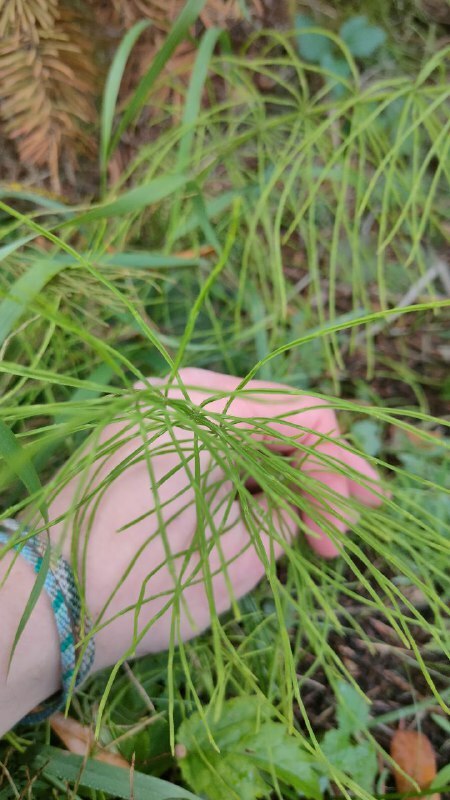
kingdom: Plantae
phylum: Tracheophyta
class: Polypodiopsida
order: Equisetales
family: Equisetaceae
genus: Equisetum
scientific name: Equisetum arvense
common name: Field horsetail
